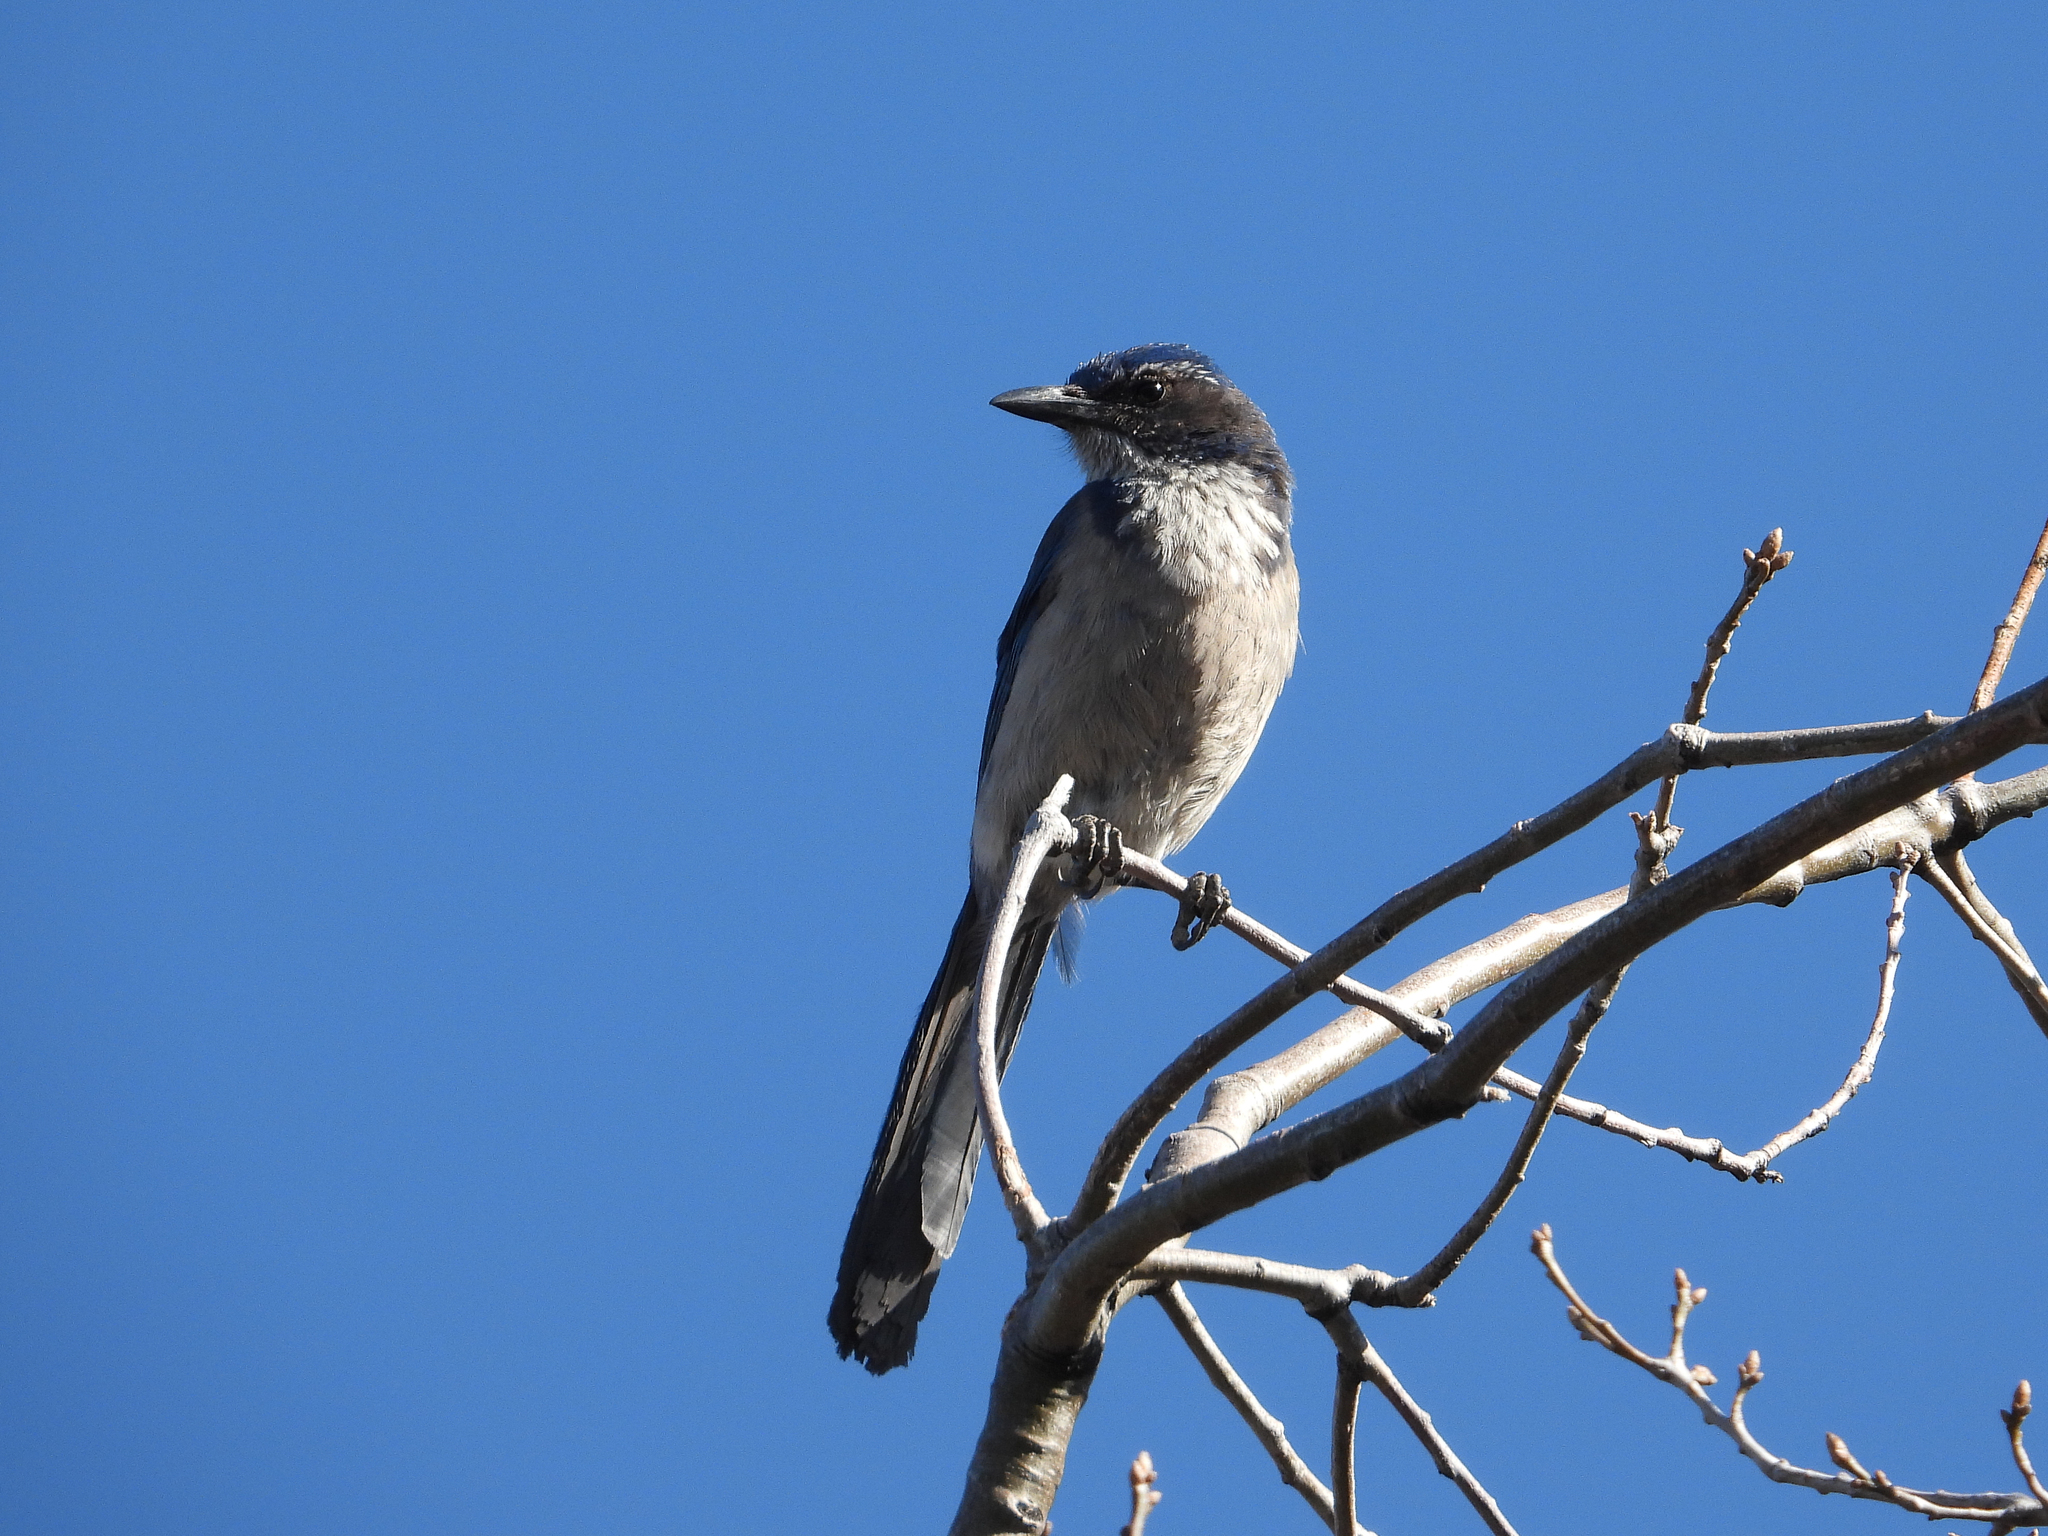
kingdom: Animalia
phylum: Chordata
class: Aves
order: Passeriformes
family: Corvidae
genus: Aphelocoma
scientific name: Aphelocoma californica
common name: California scrub-jay
